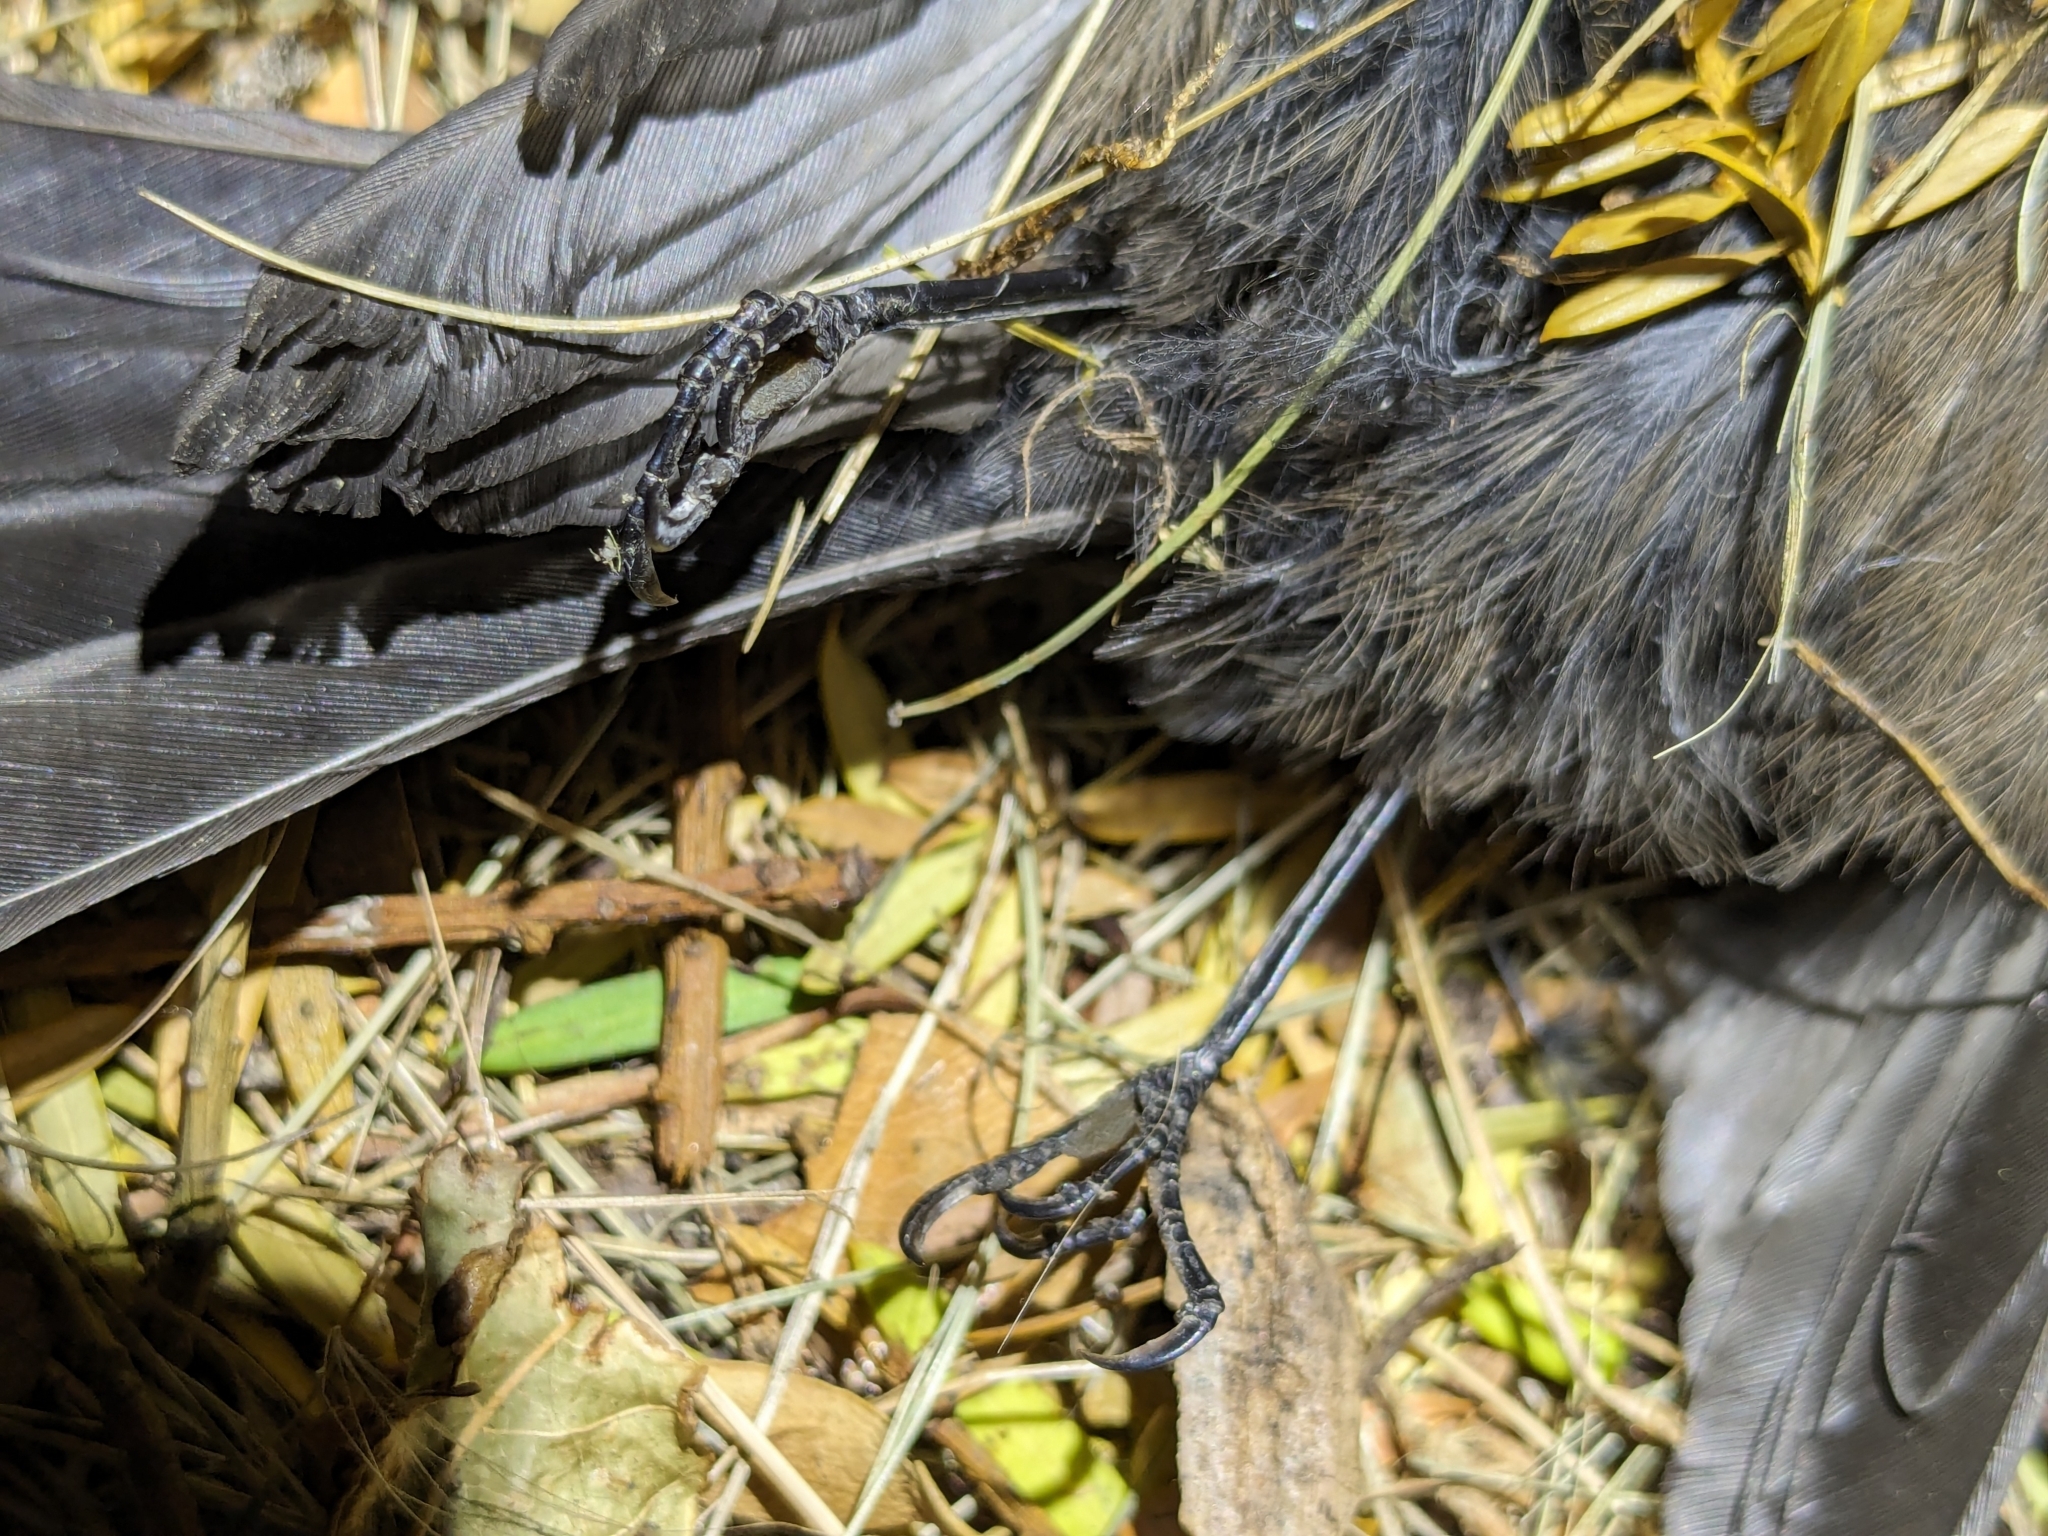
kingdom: Animalia
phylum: Chordata
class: Aves
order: Passeriformes
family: Rhipiduridae
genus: Rhipidura
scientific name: Rhipidura fuliginosa
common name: New zealand fantail
